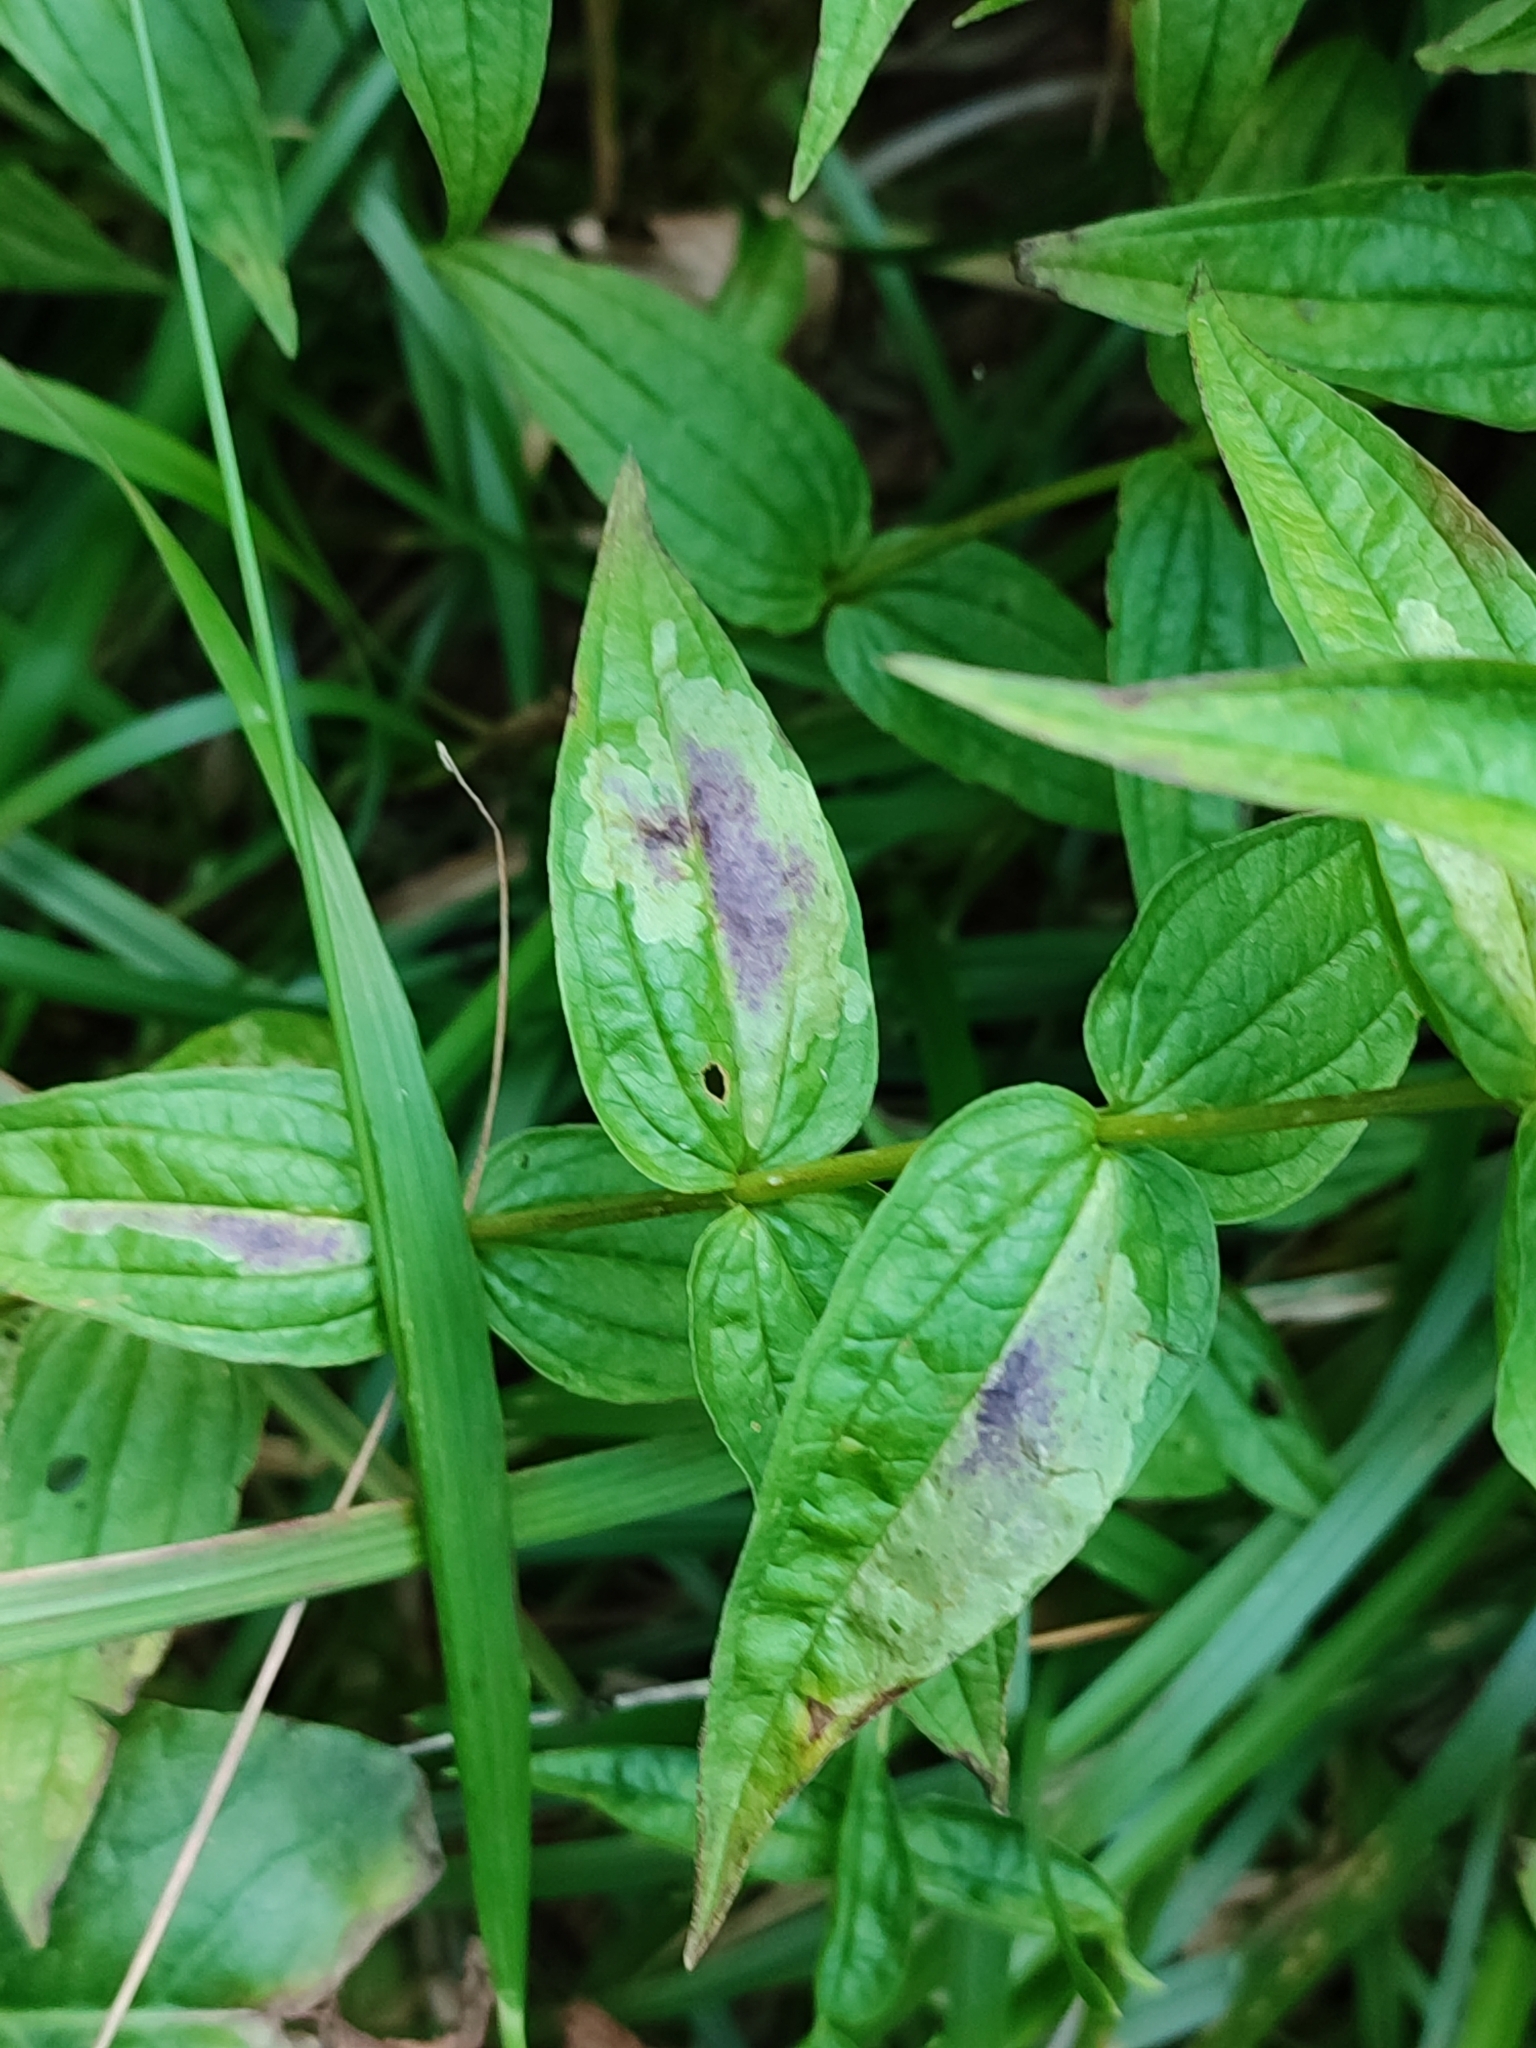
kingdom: Plantae
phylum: Tracheophyta
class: Magnoliopsida
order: Gentianales
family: Gentianaceae
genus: Gentiana
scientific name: Gentiana asclepiadea
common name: Willow gentian
